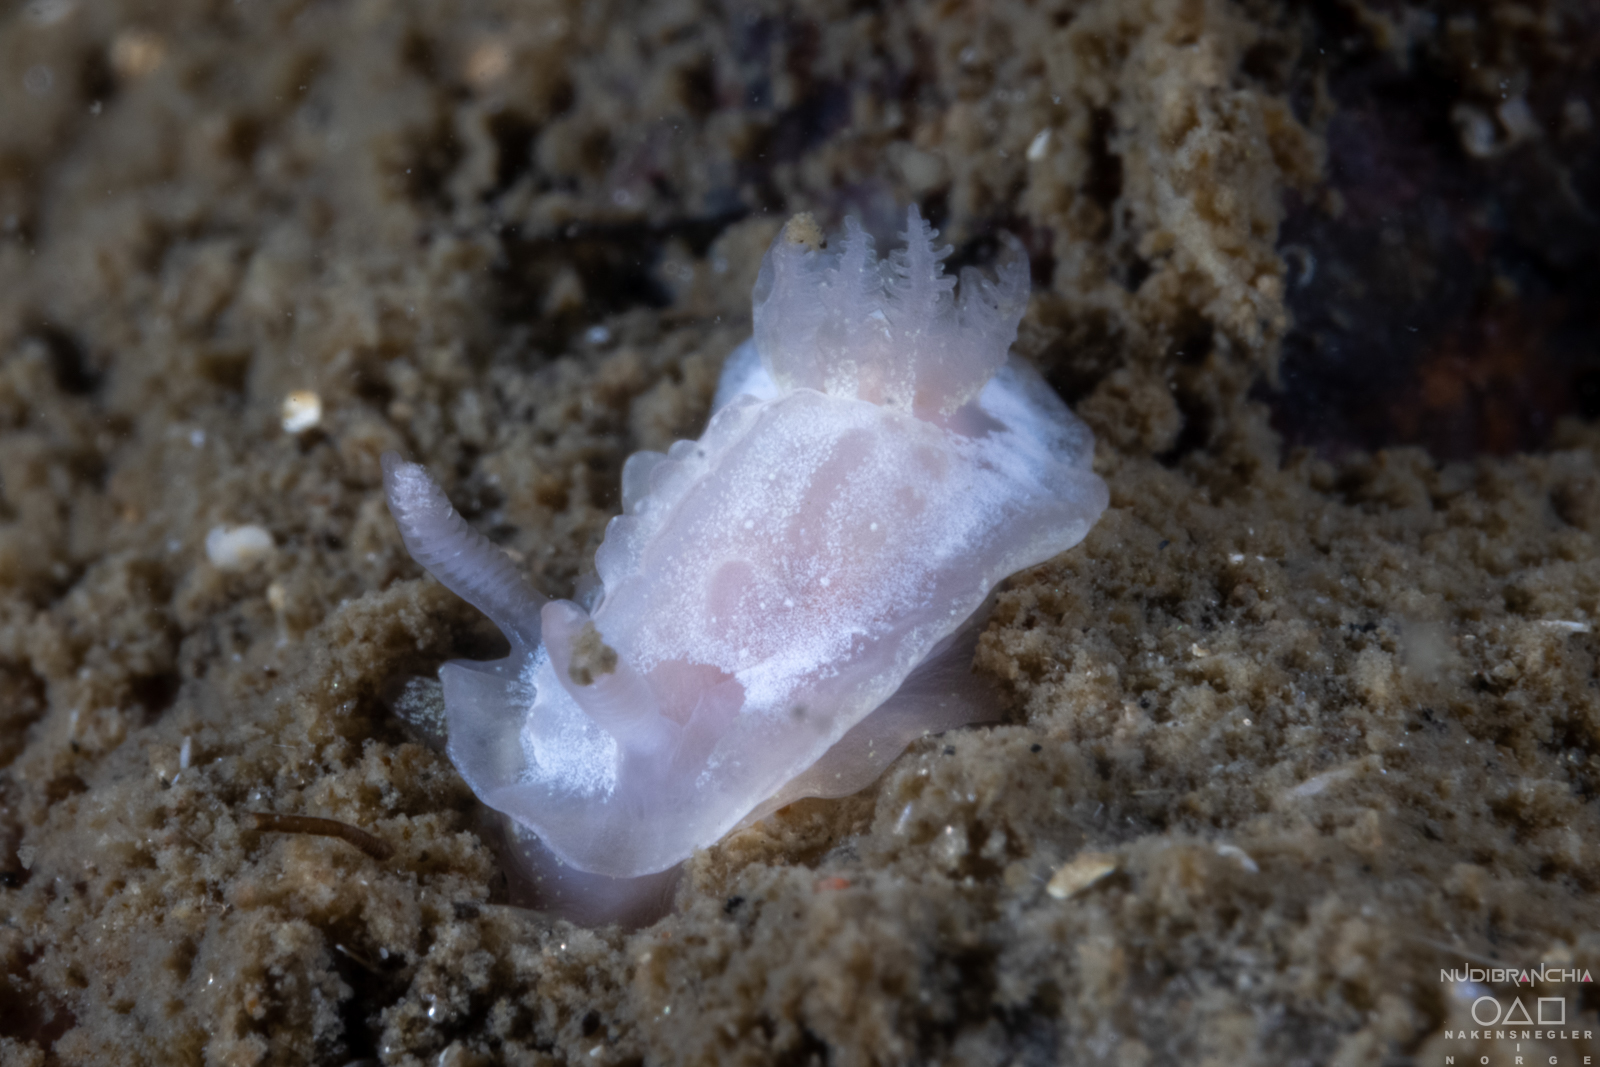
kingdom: Animalia
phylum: Mollusca
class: Gastropoda
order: Nudibranchia
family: Goniodorididae
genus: Okenia
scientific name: Okenia
